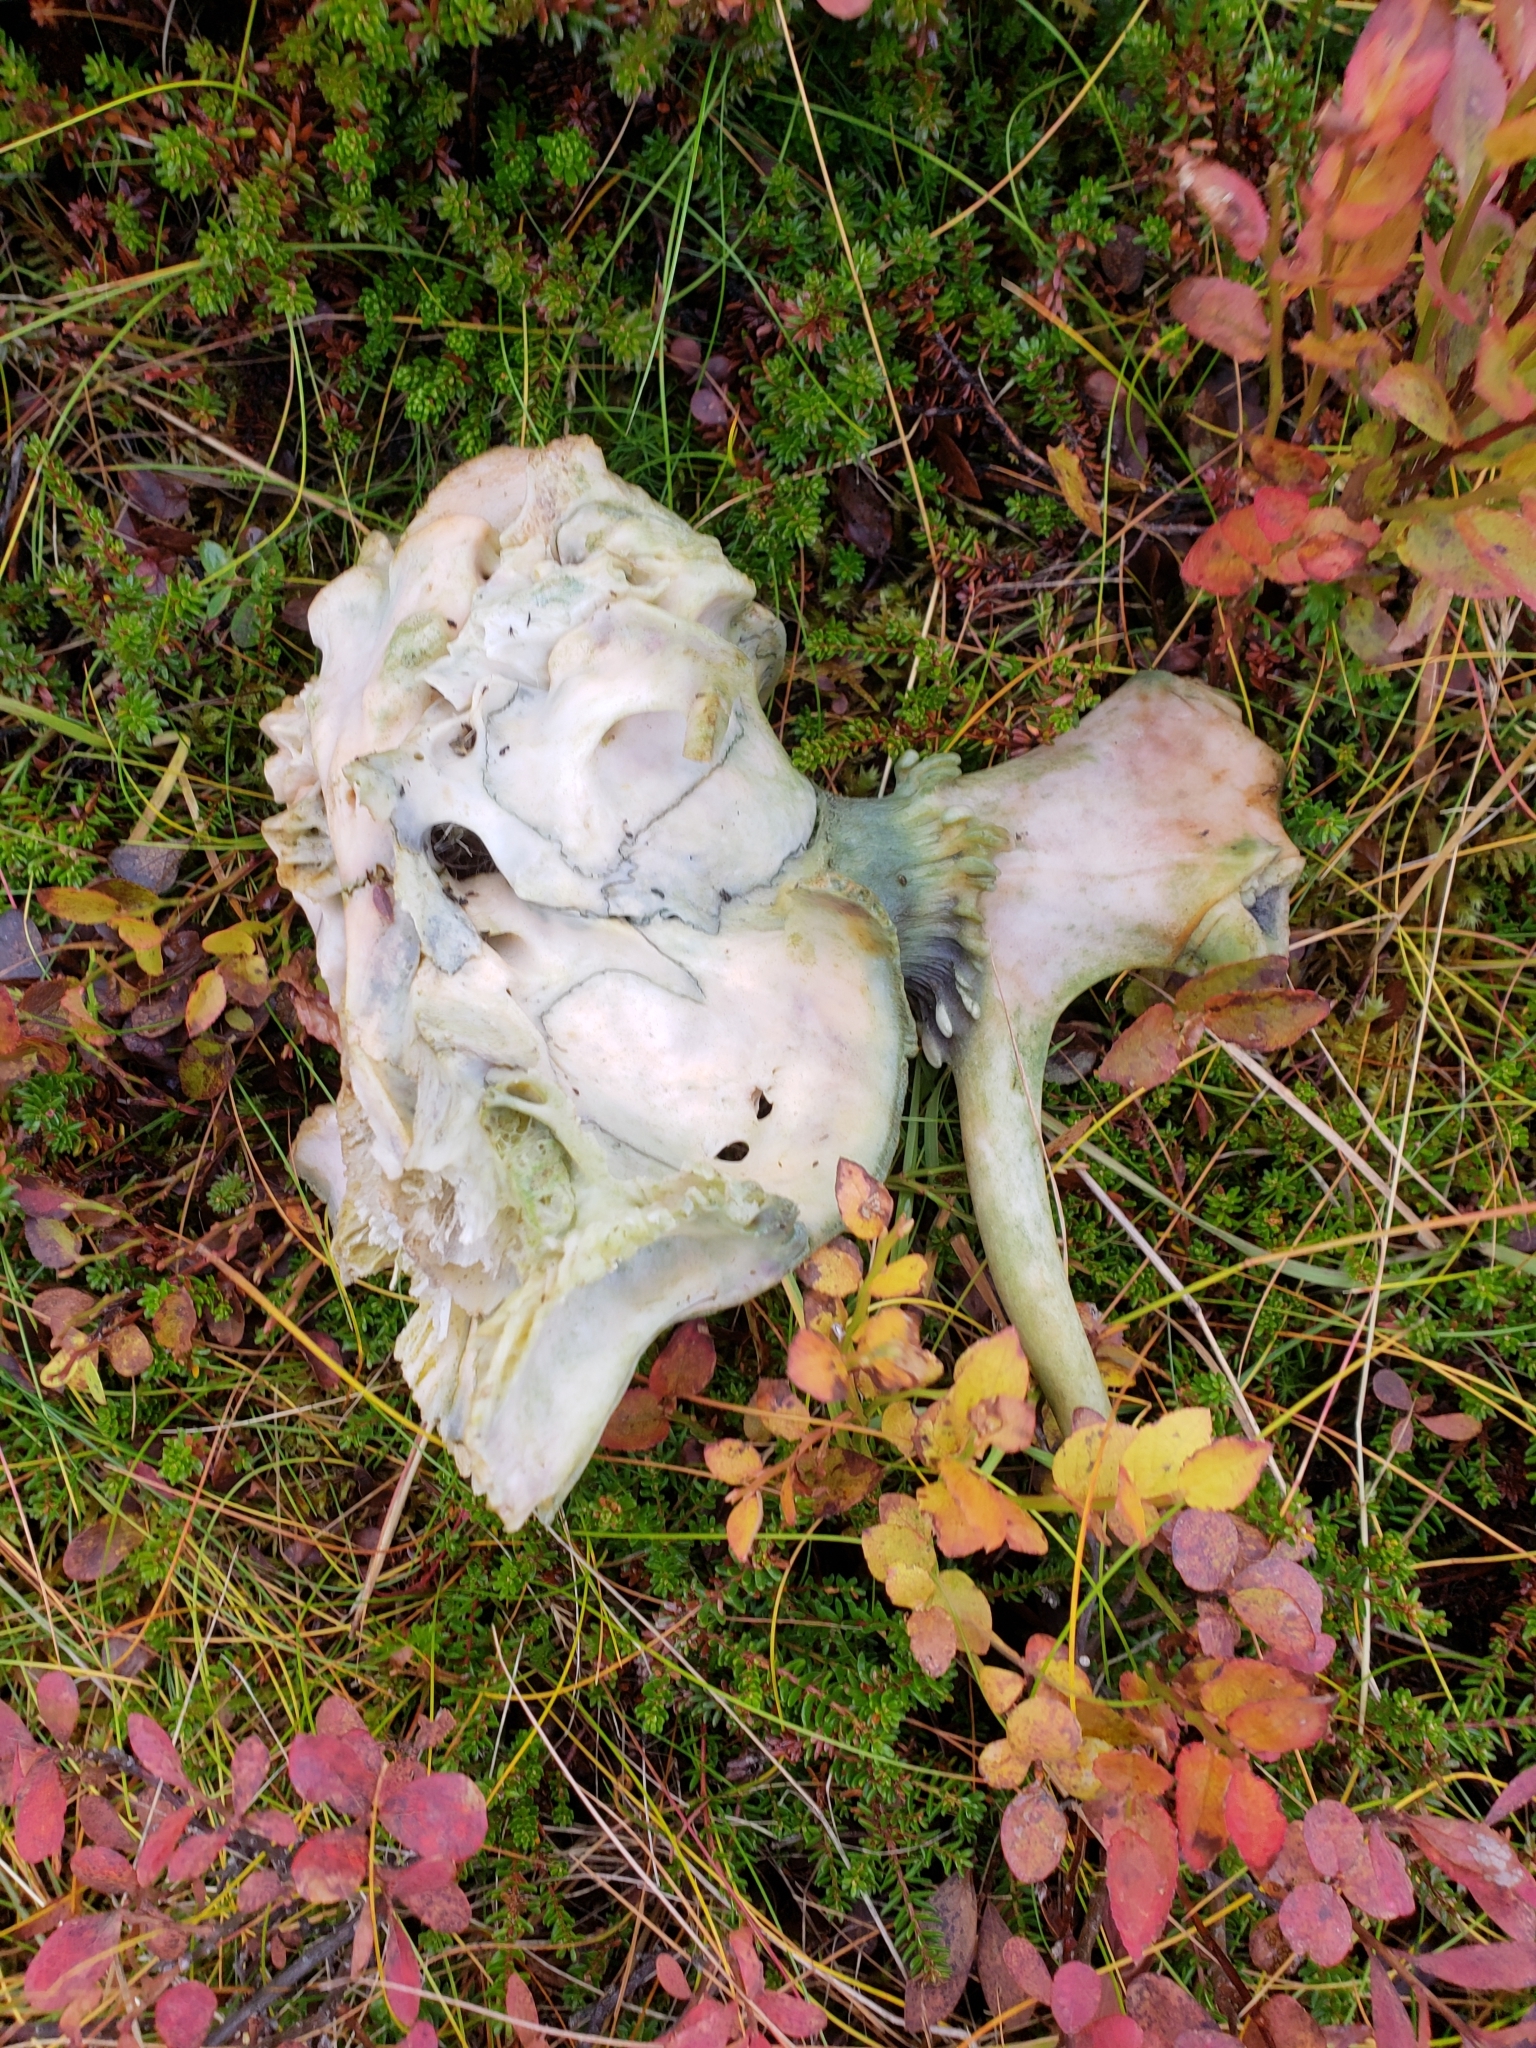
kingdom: Animalia
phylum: Chordata
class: Mammalia
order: Artiodactyla
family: Cervidae
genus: Rangifer
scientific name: Rangifer tarandus
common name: Reindeer
